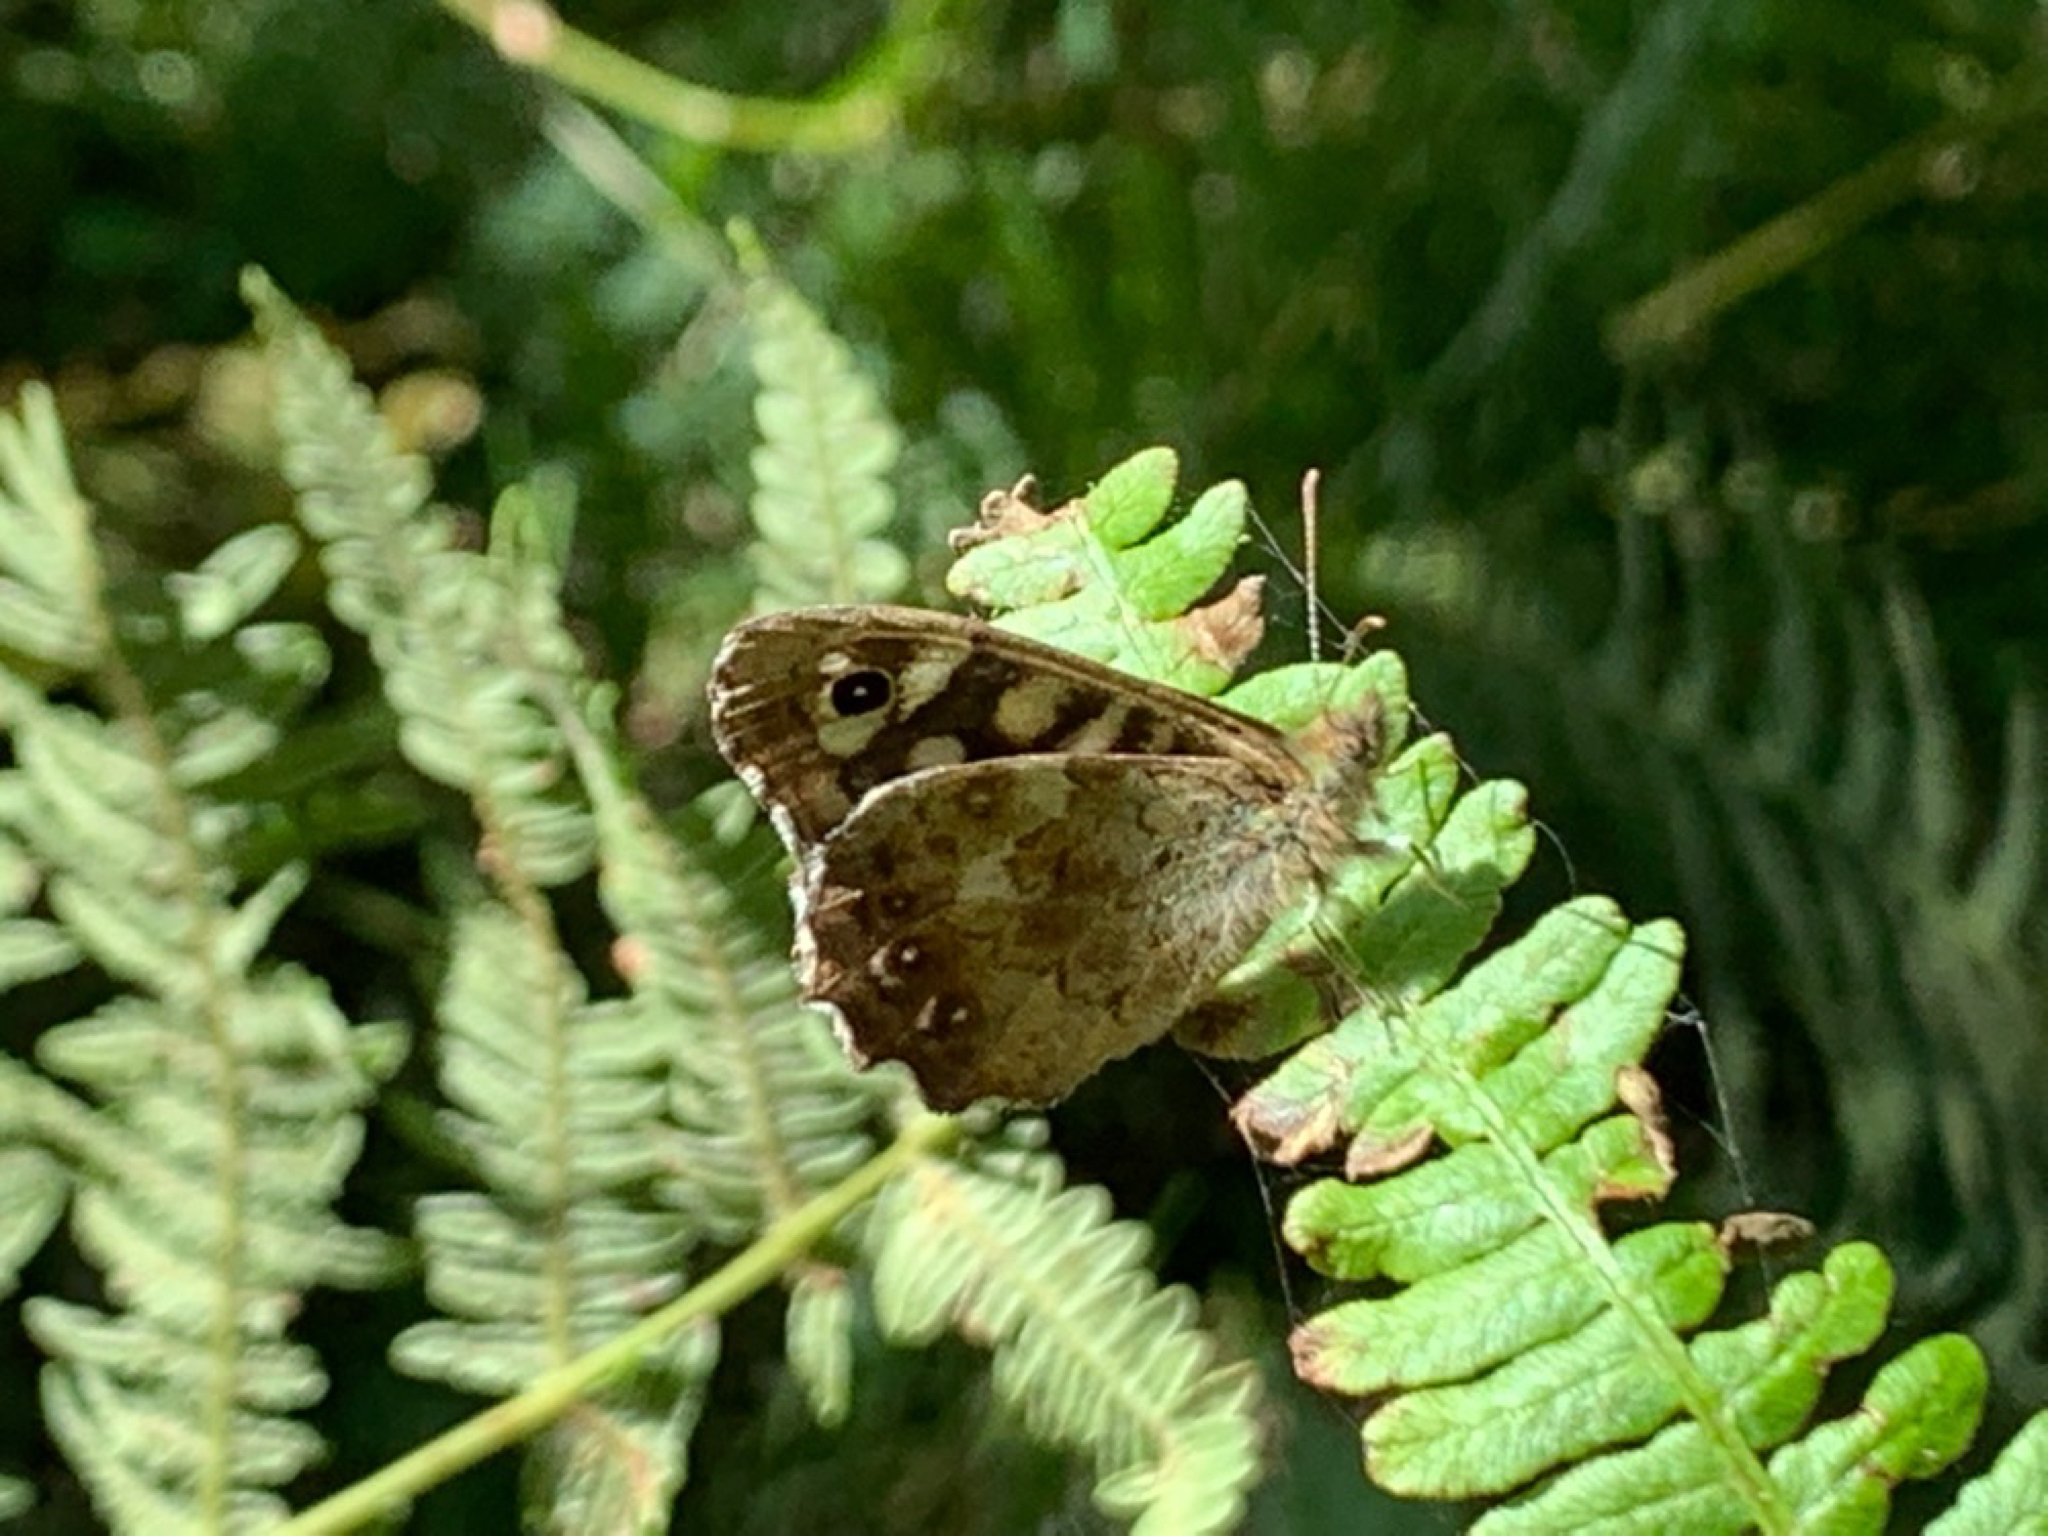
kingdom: Animalia
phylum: Arthropoda
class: Insecta
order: Lepidoptera
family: Nymphalidae
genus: Pararge
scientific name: Pararge aegeria
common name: Speckled wood
